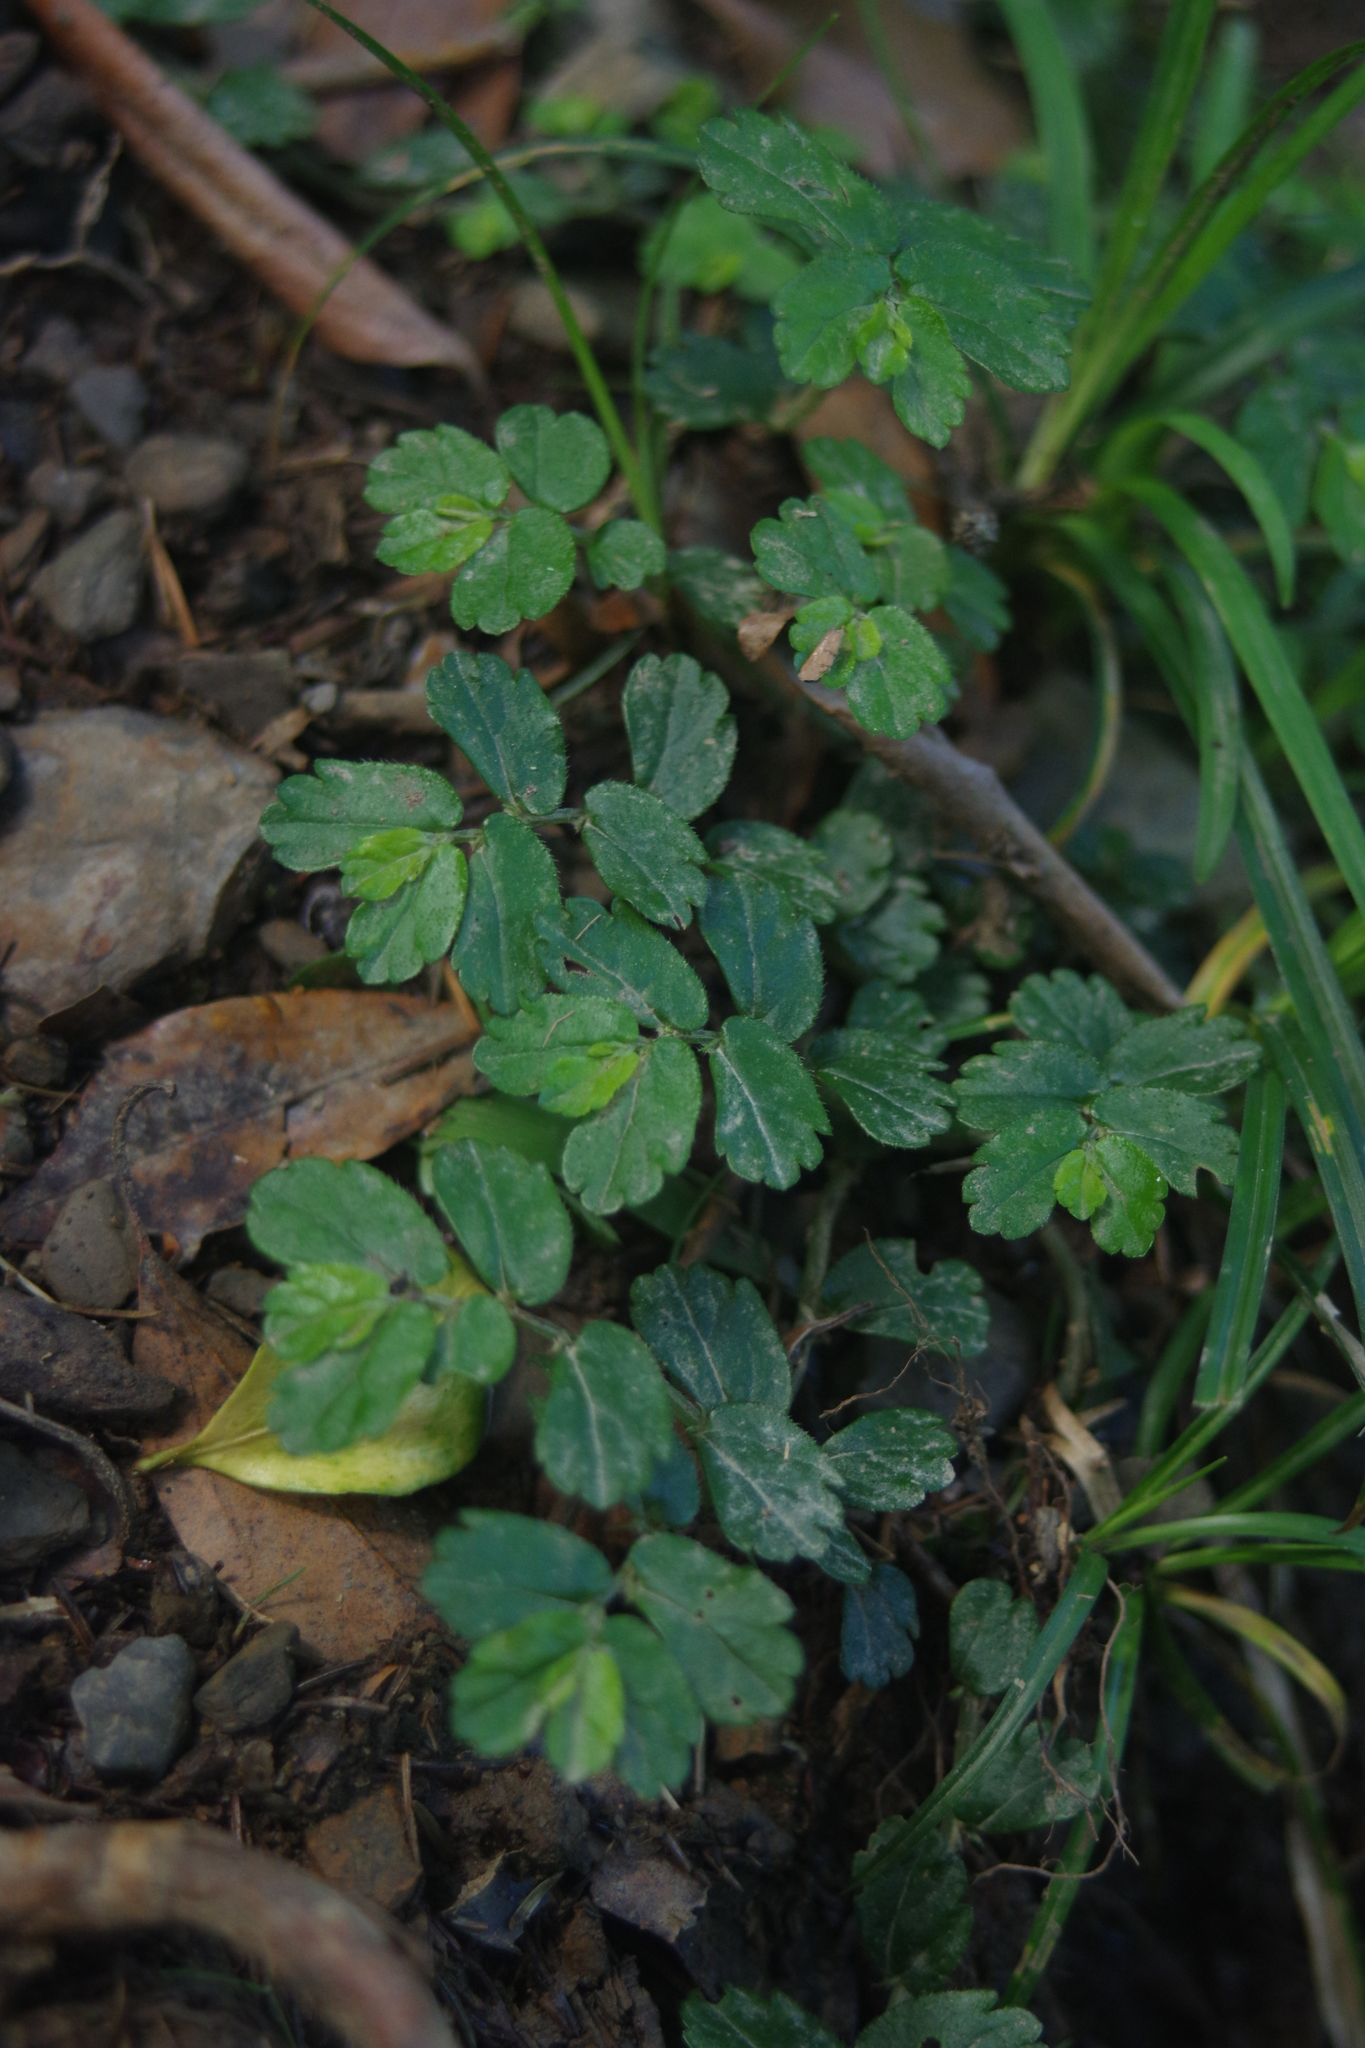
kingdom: Plantae
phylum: Tracheophyta
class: Magnoliopsida
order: Rosales
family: Urticaceae
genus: Elatostema
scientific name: Elatostema obtusum
